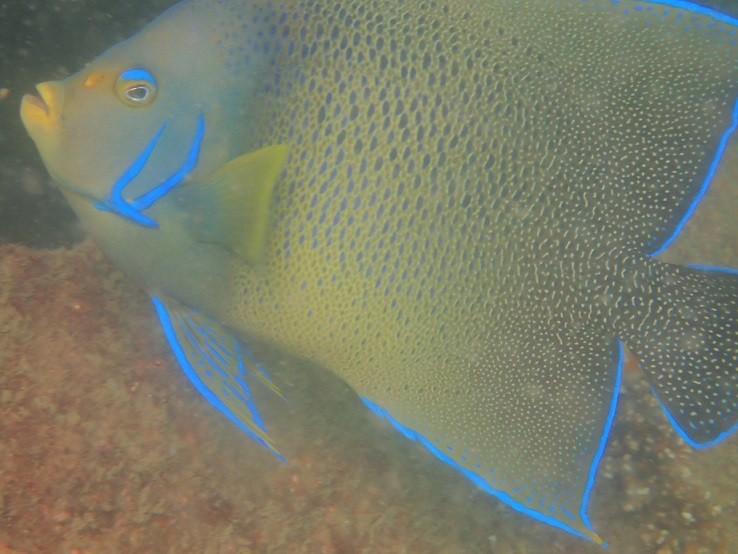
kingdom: Animalia
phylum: Chordata
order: Perciformes
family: Pomacanthidae
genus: Pomacanthus
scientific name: Pomacanthus semicirculatus
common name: Semicircle angelfish
